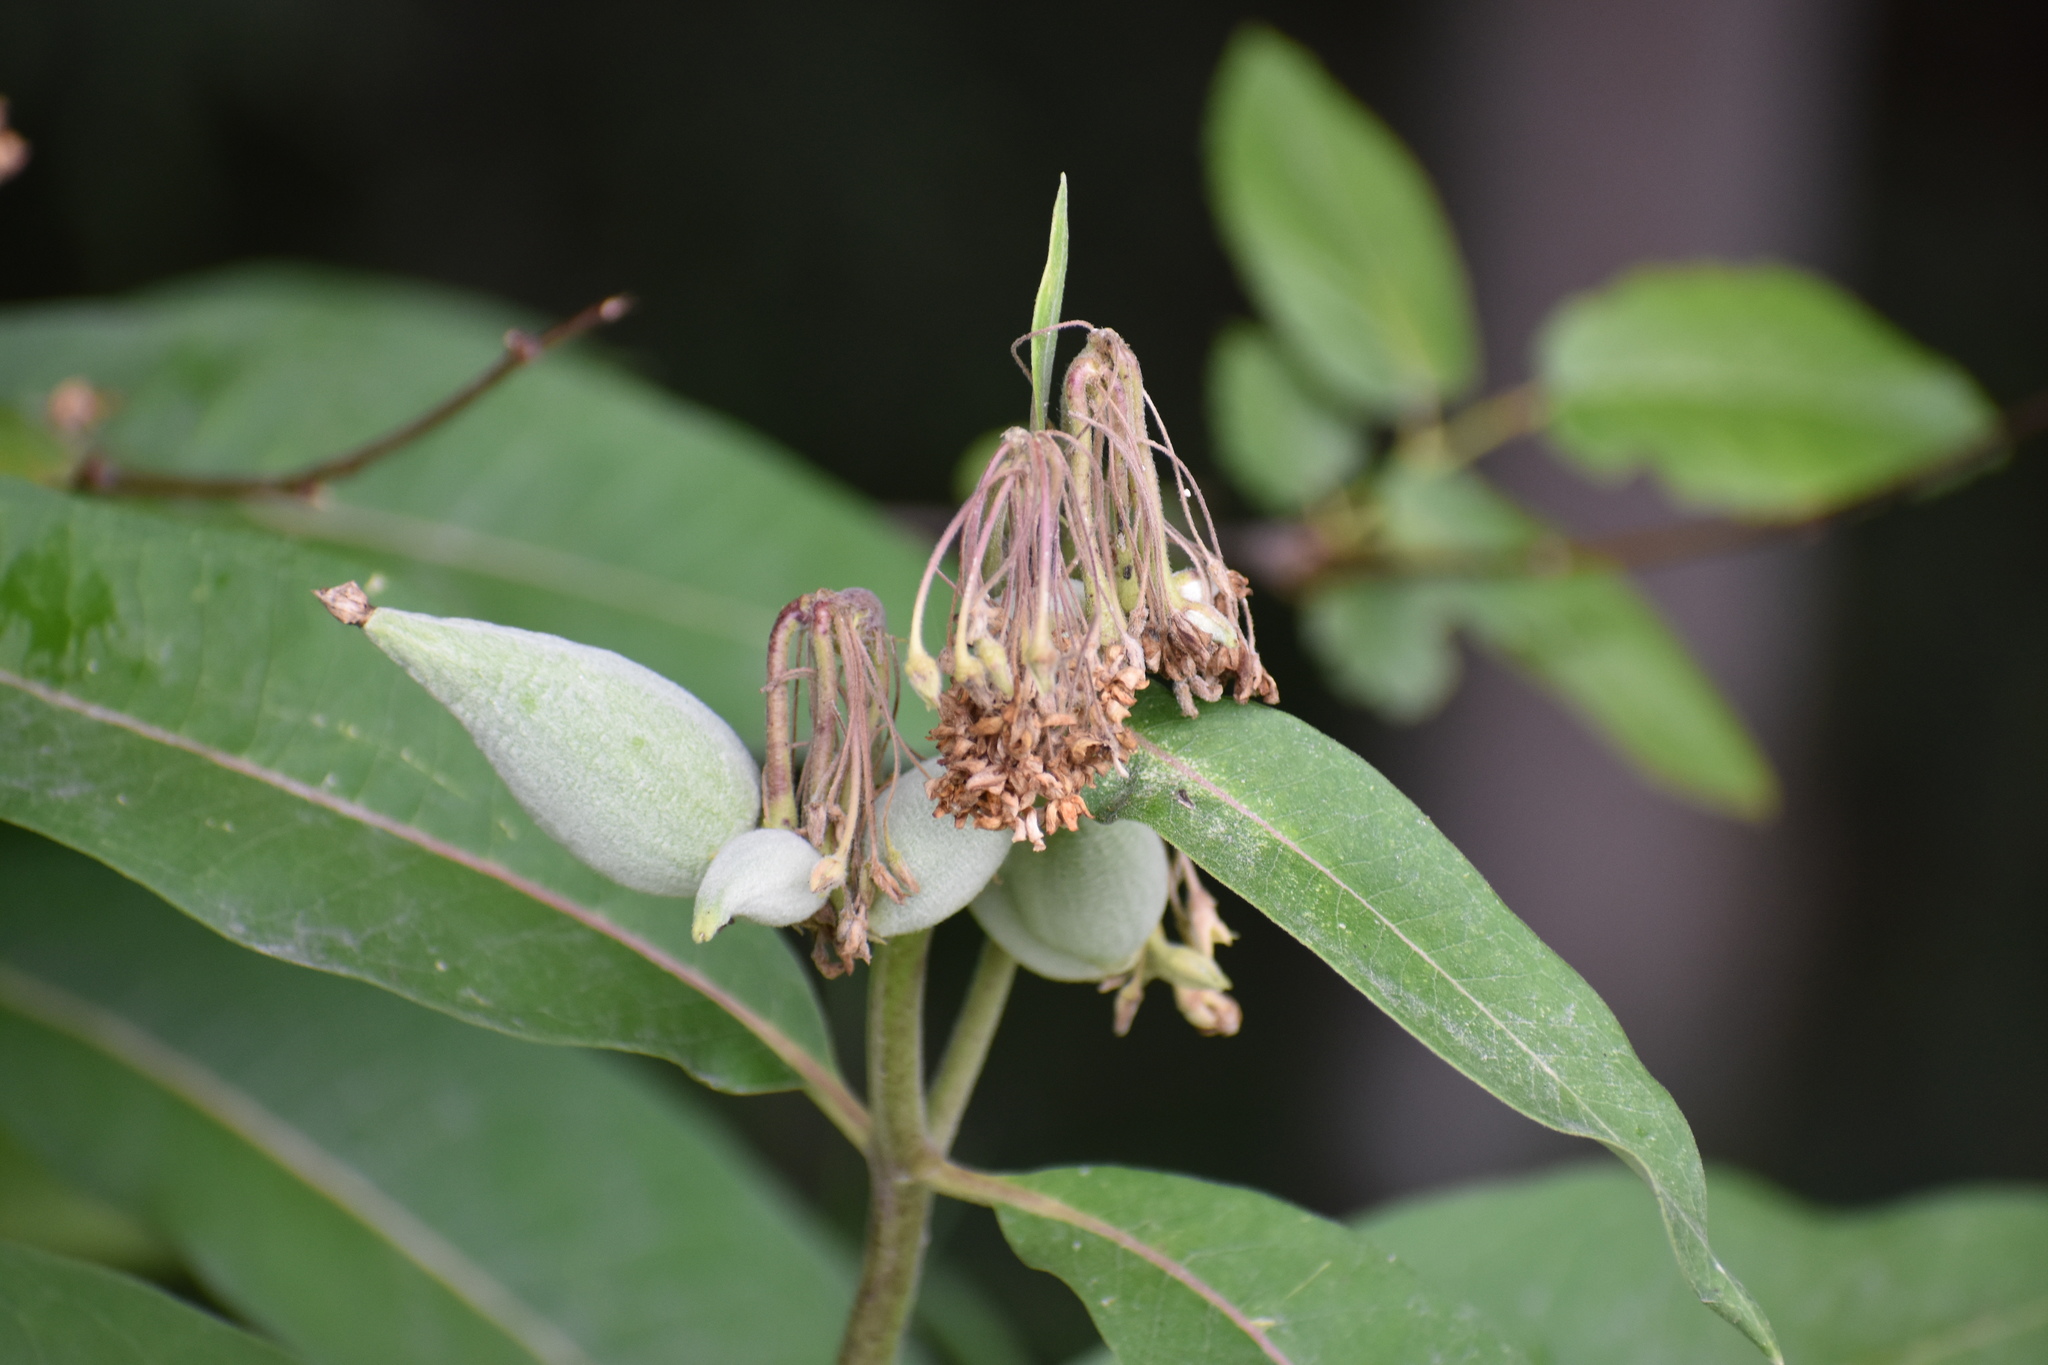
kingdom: Plantae
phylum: Tracheophyta
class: Magnoliopsida
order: Gentianales
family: Apocynaceae
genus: Asclepias
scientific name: Asclepias syriaca
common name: Common milkweed
